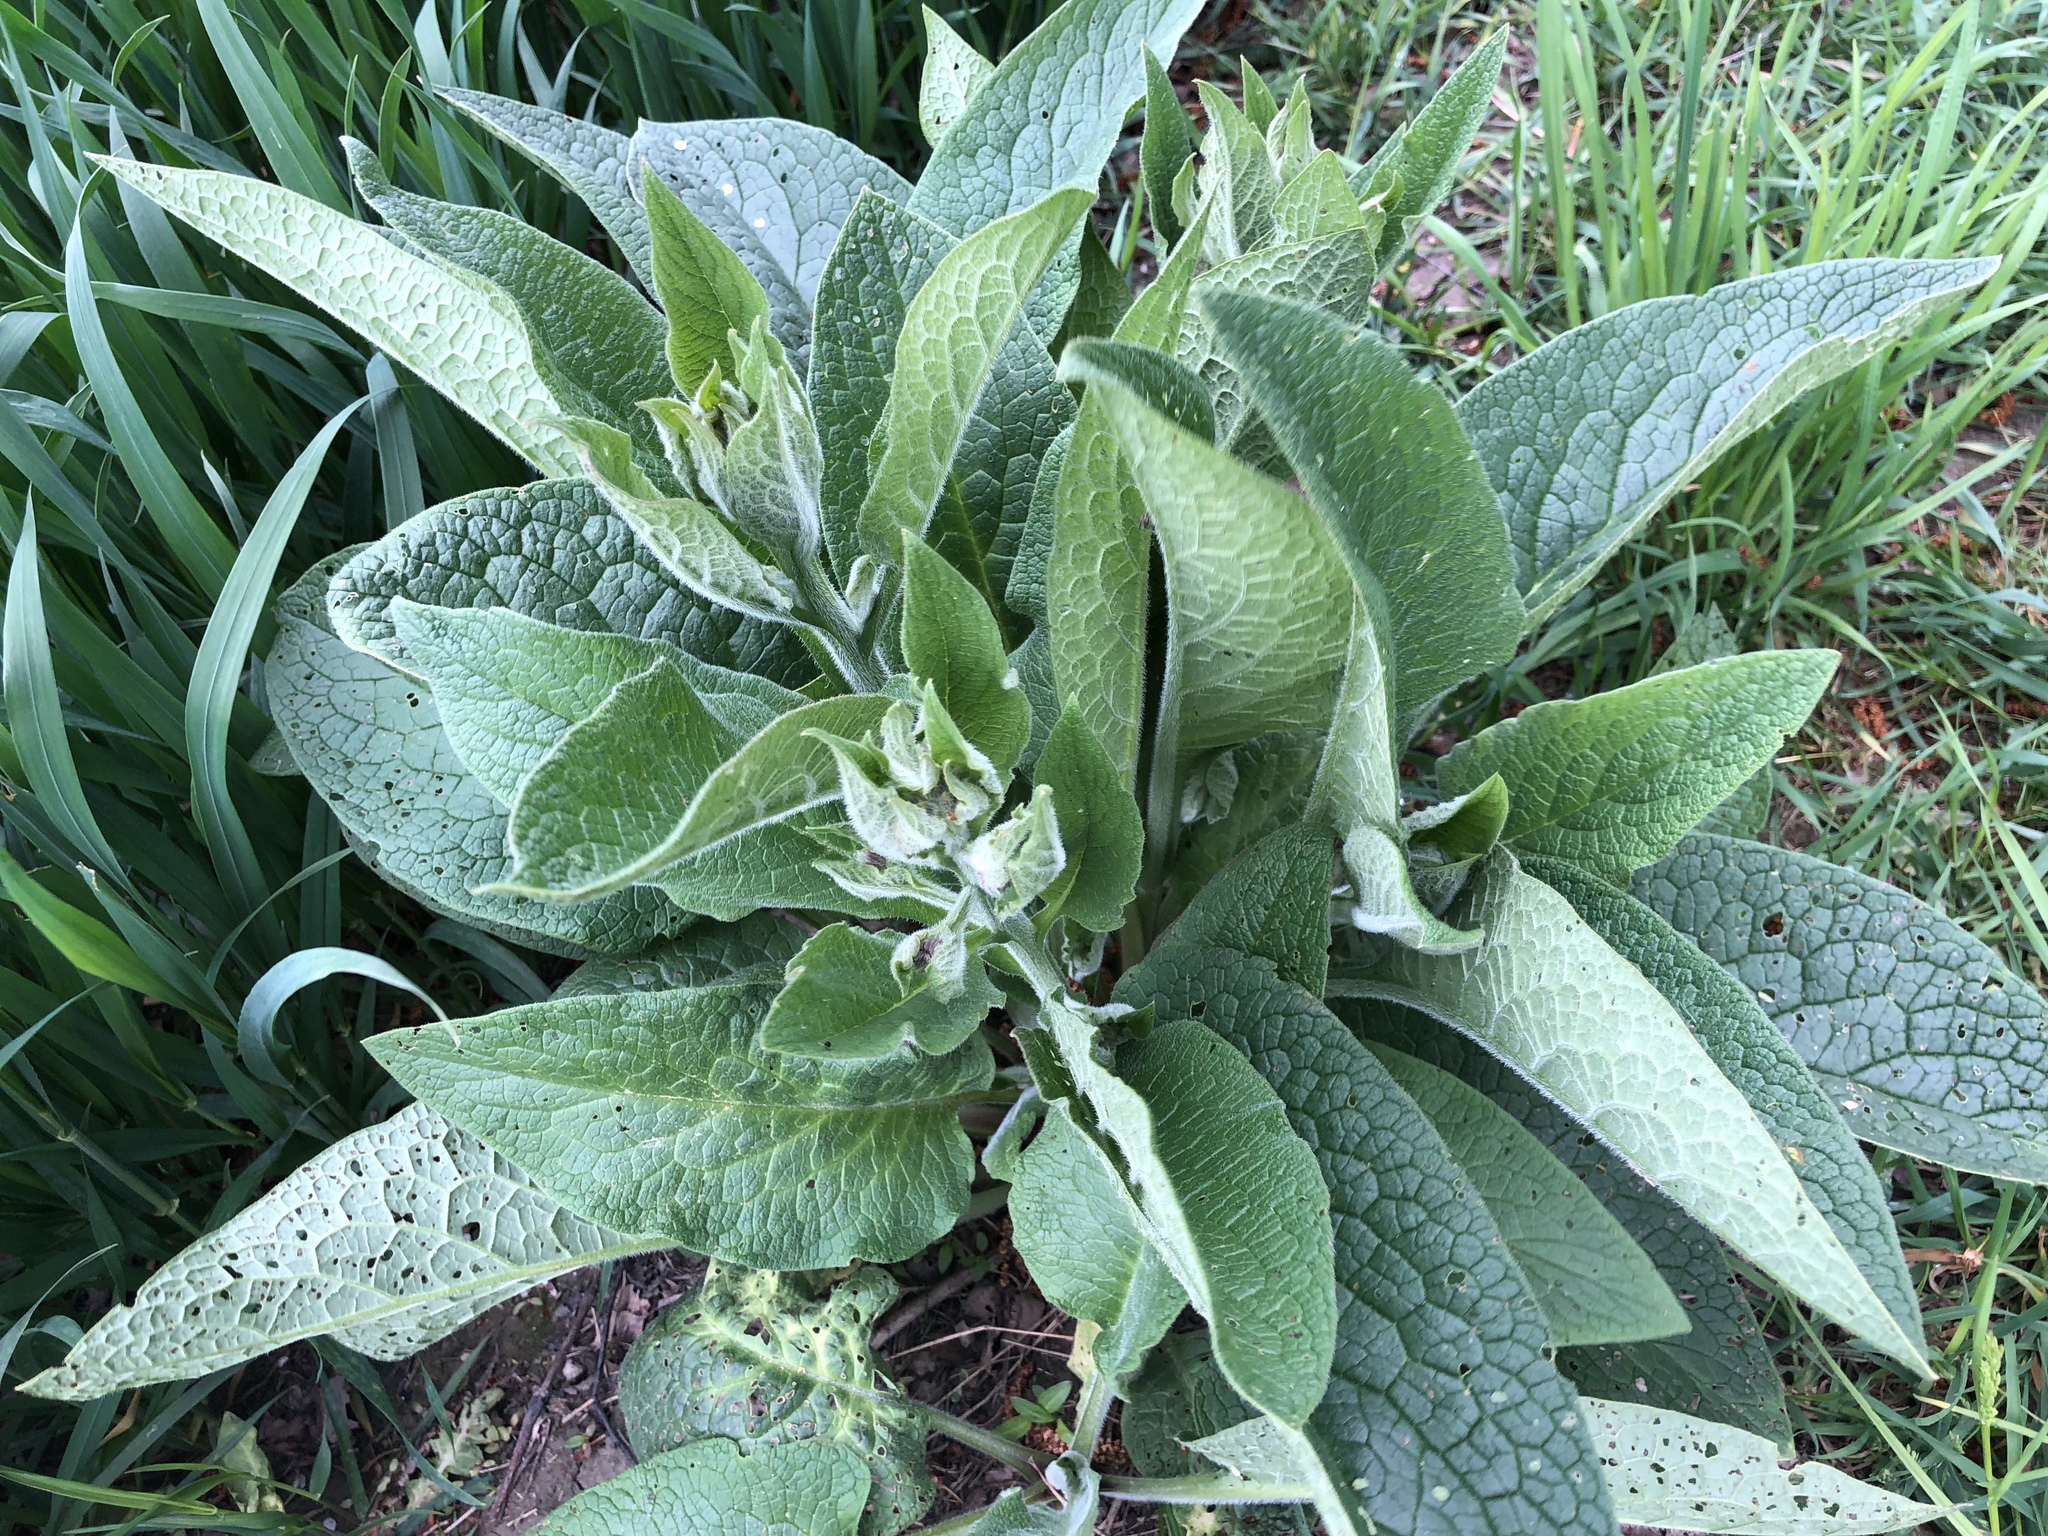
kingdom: Plantae
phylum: Tracheophyta
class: Magnoliopsida
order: Boraginales
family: Boraginaceae
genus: Symphytum
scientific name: Symphytum officinale
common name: Common comfrey
